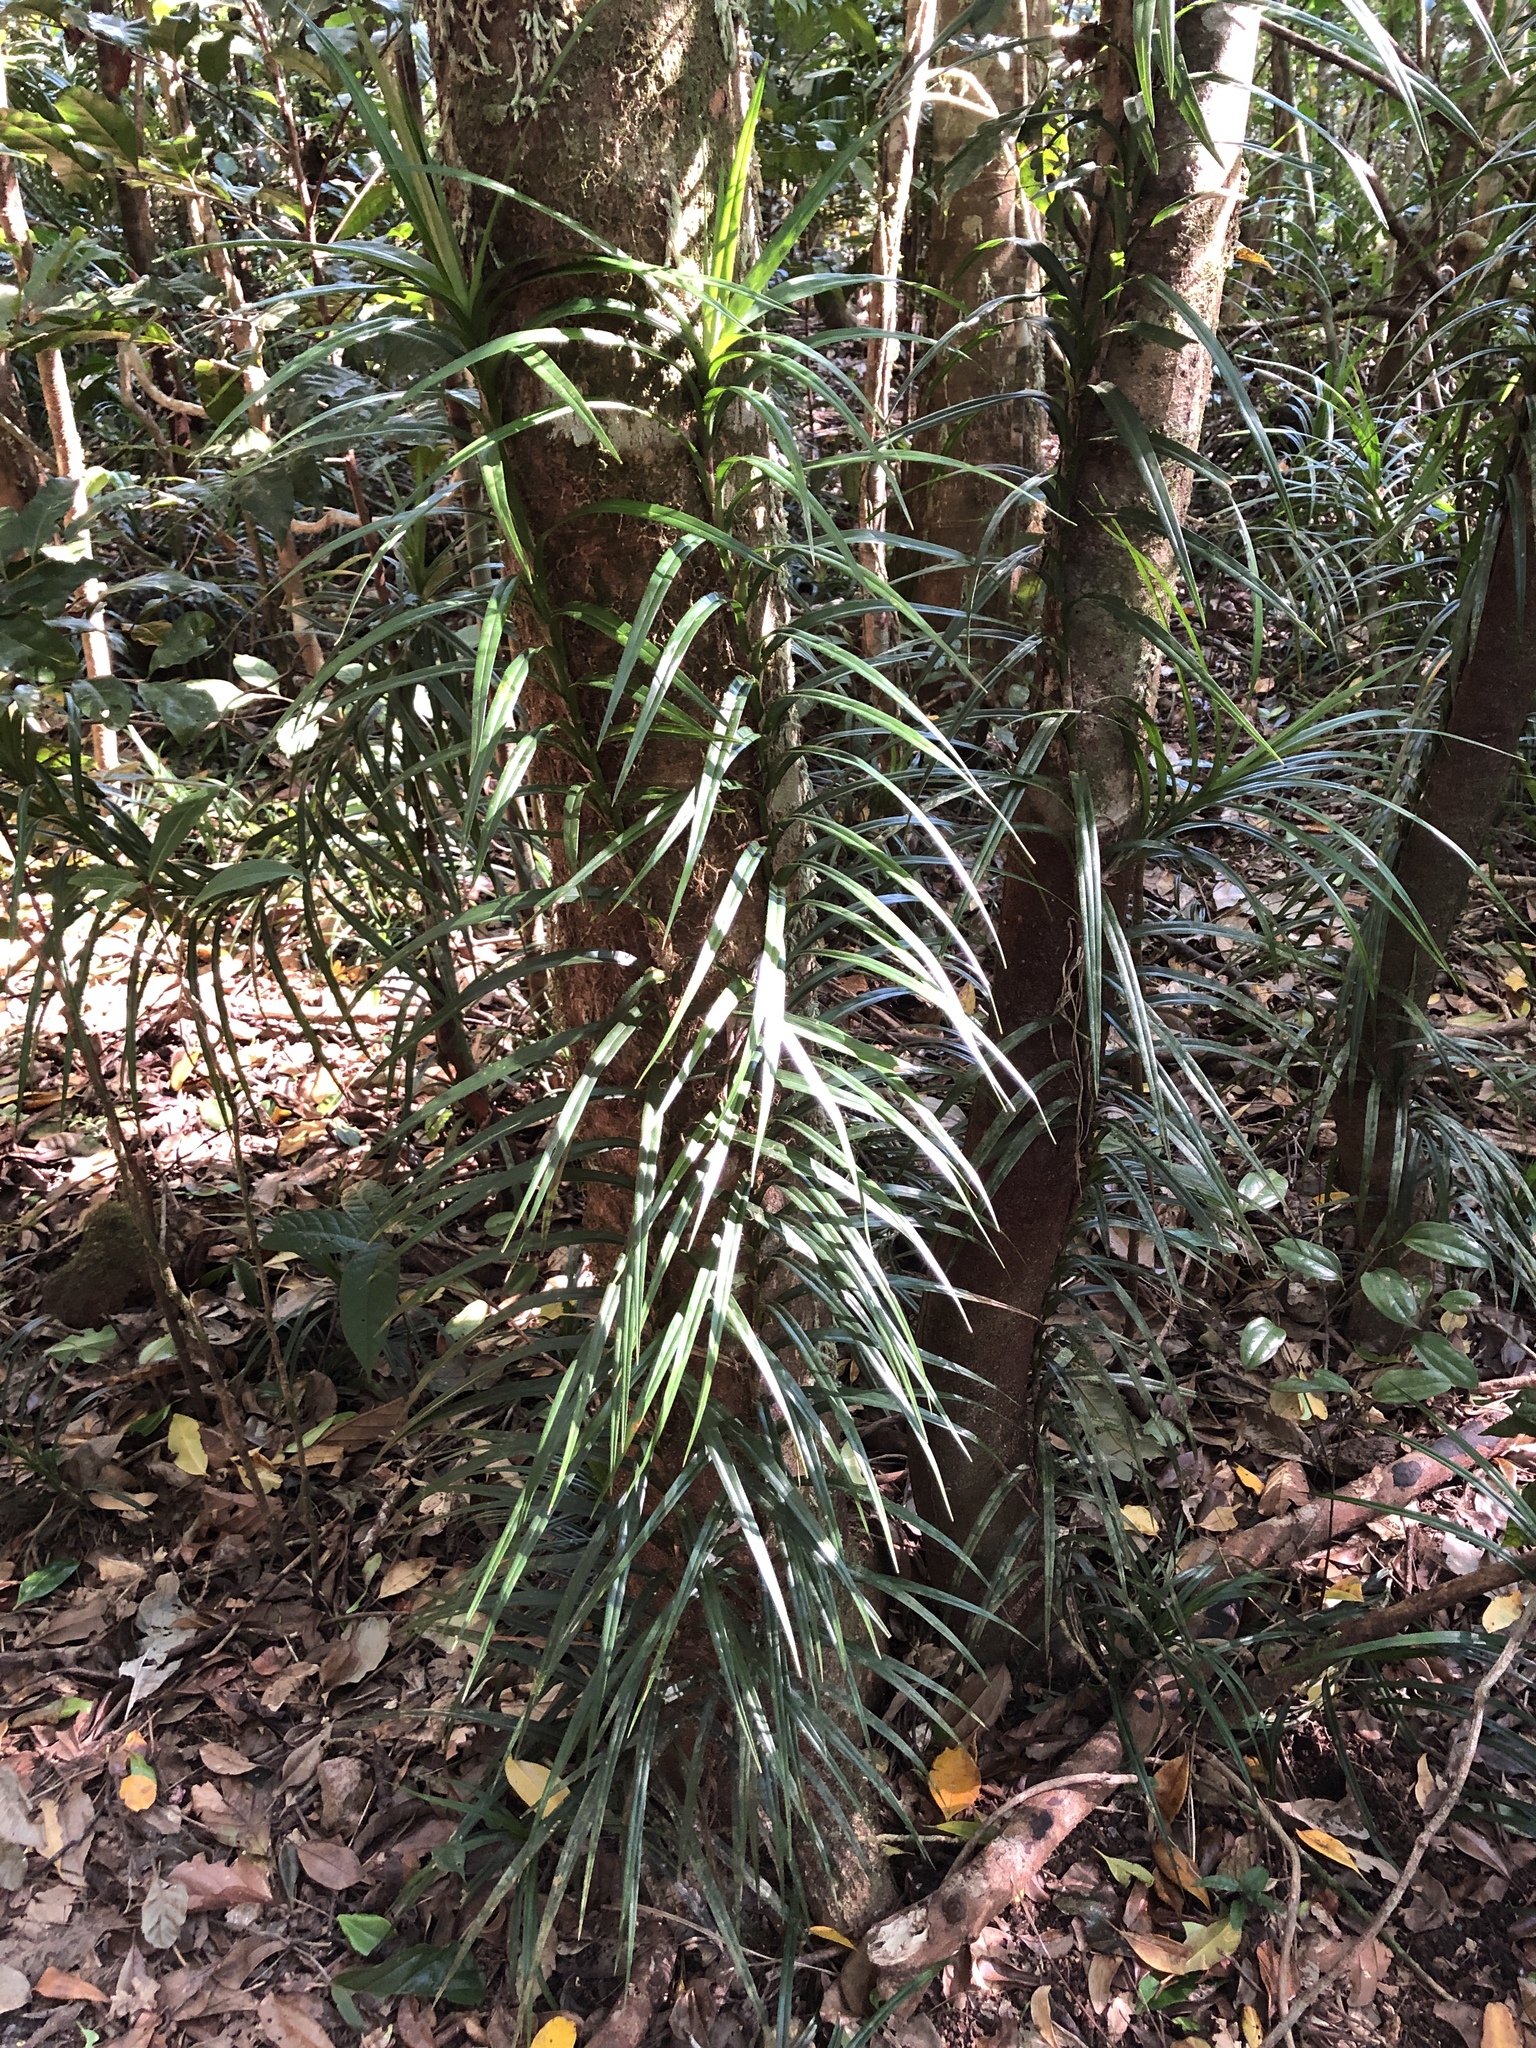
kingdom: Plantae
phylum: Tracheophyta
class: Liliopsida
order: Pandanales
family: Pandanaceae
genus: Freycinetia
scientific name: Freycinetia excelsa
